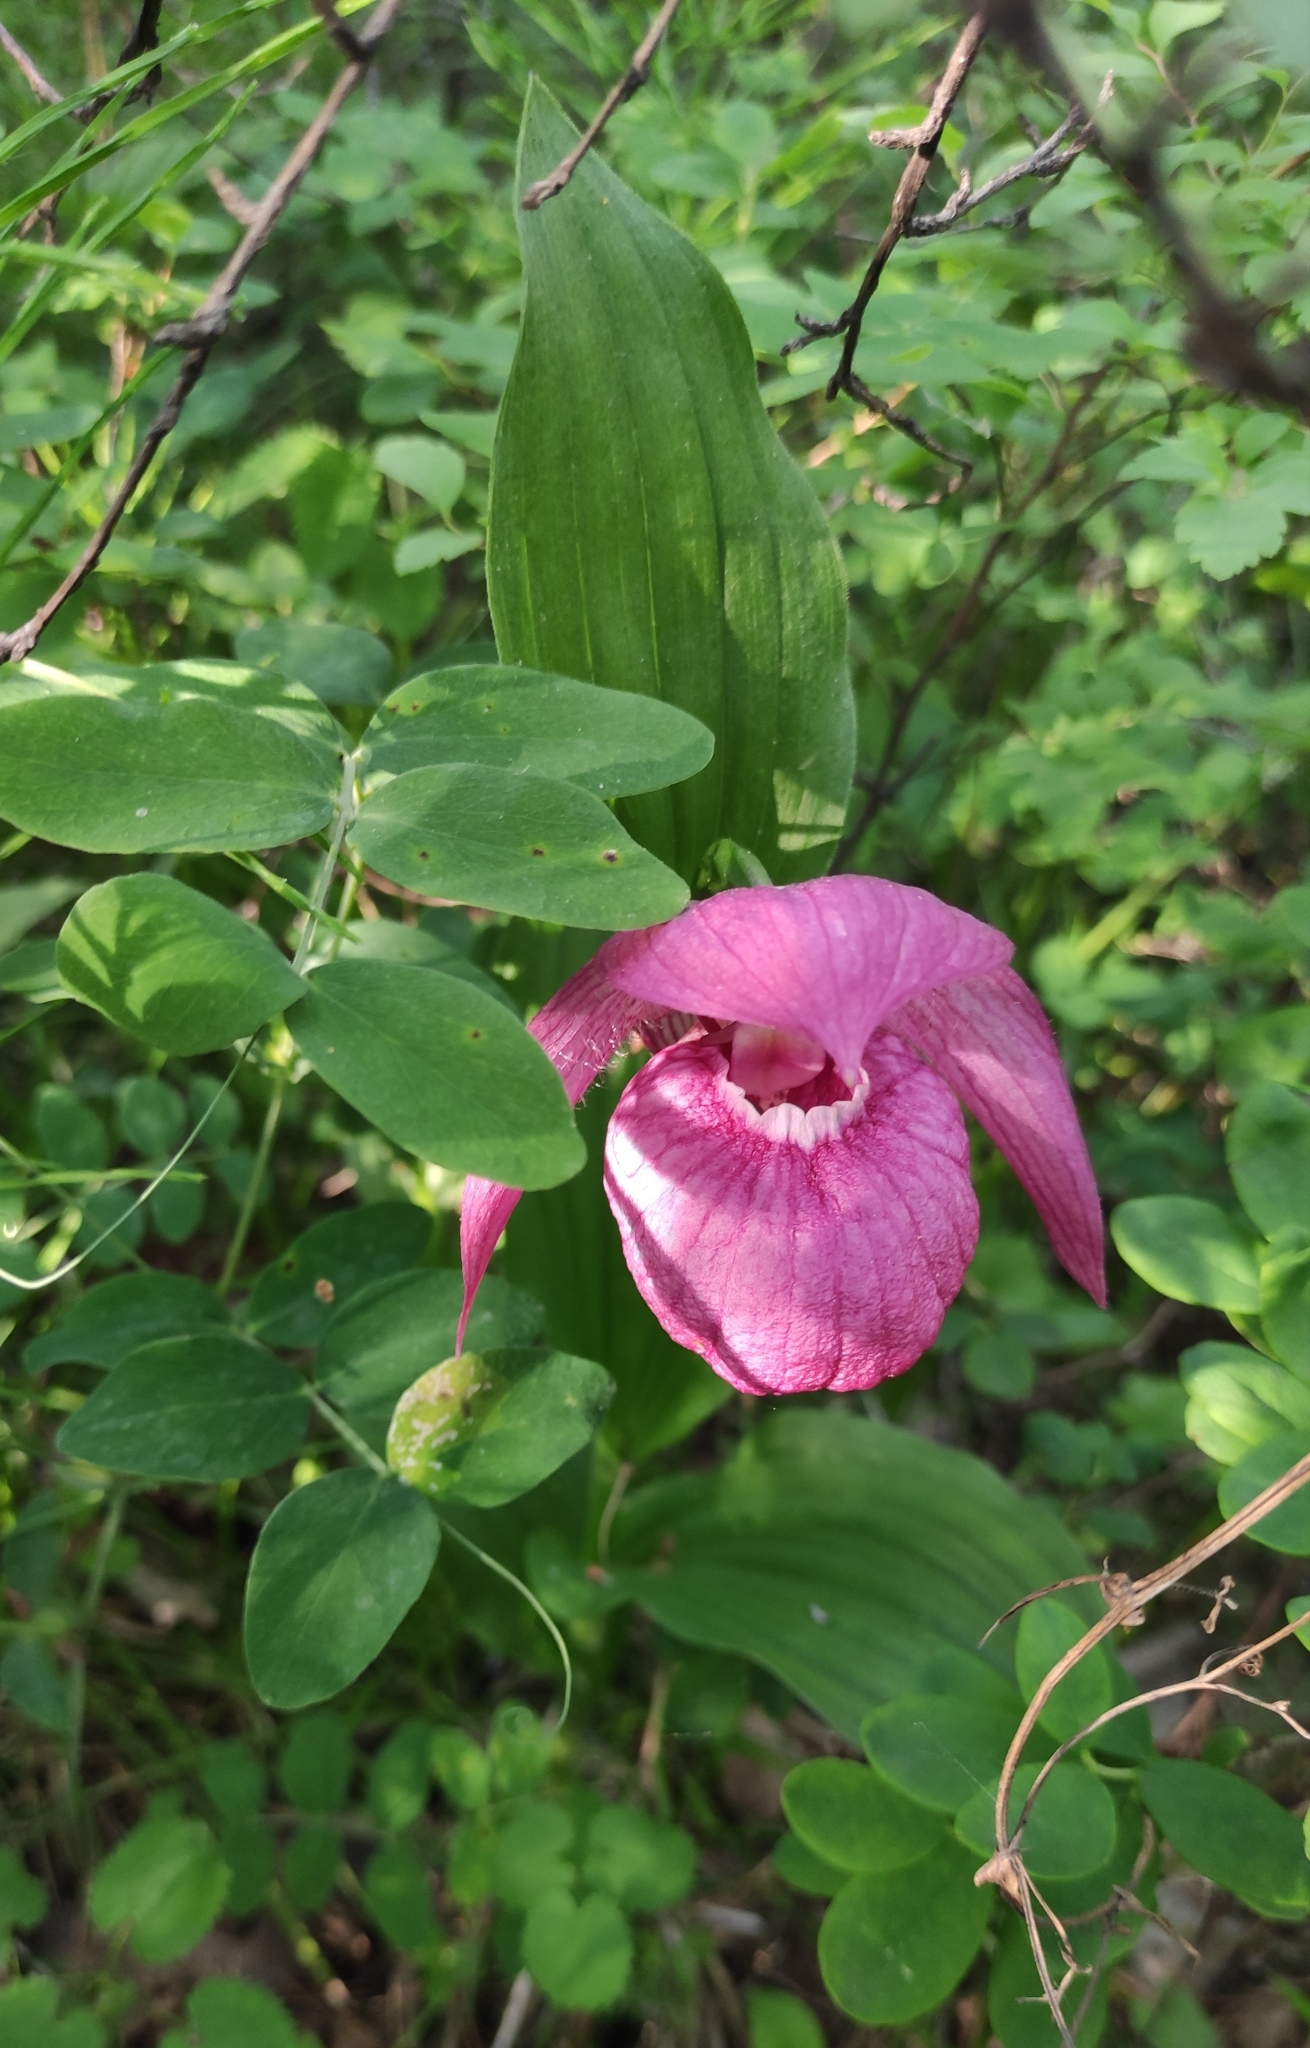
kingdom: Plantae
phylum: Tracheophyta
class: Liliopsida
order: Asparagales
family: Orchidaceae
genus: Cypripedium
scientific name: Cypripedium macranthos
